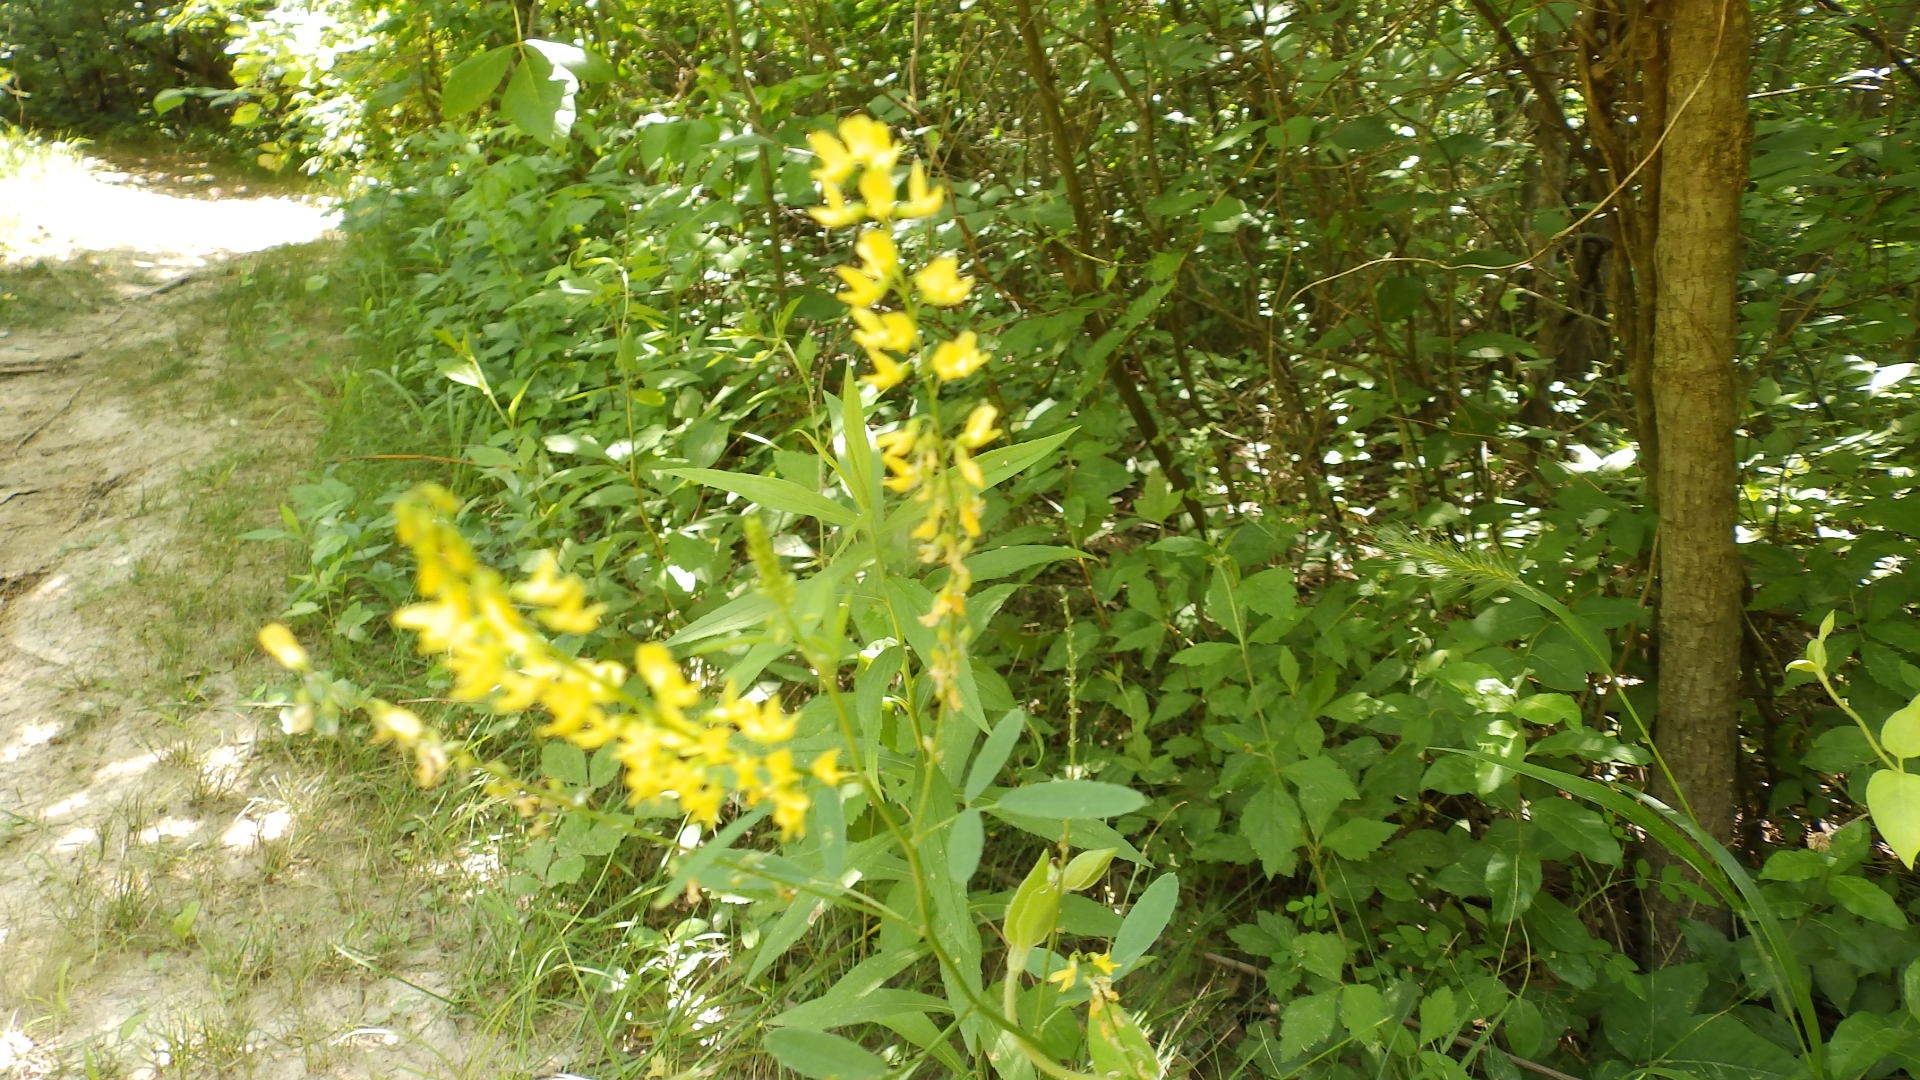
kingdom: Plantae
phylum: Tracheophyta
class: Magnoliopsida
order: Fabales
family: Fabaceae
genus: Melilotus
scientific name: Melilotus officinalis
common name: Sweetclover
